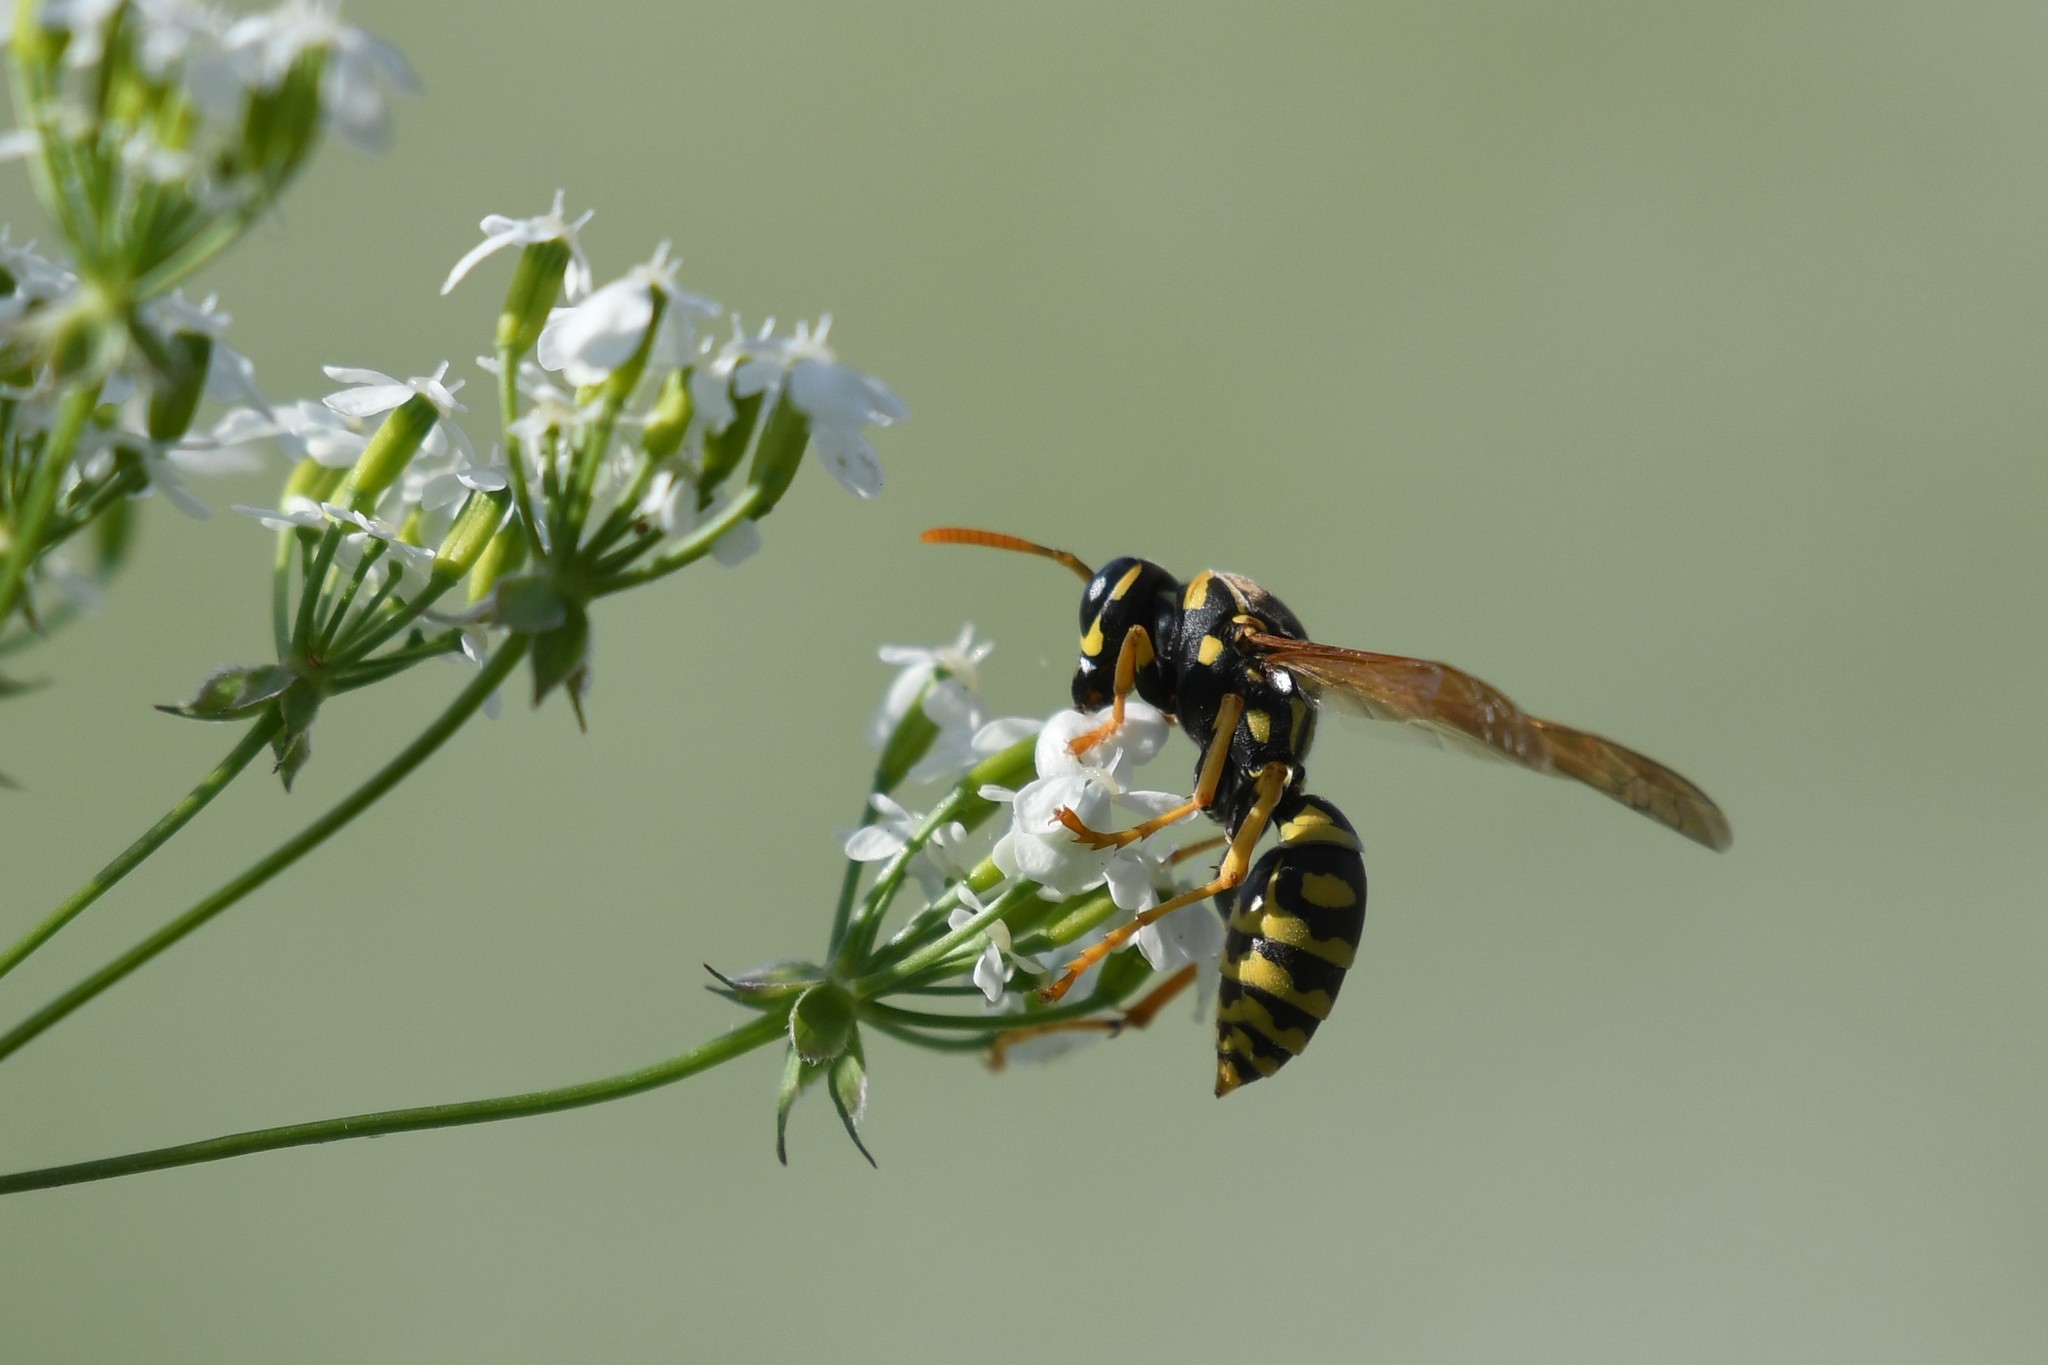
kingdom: Animalia
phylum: Arthropoda
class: Insecta
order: Hymenoptera
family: Eumenidae
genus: Polistes
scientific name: Polistes dominula
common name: Paper wasp
